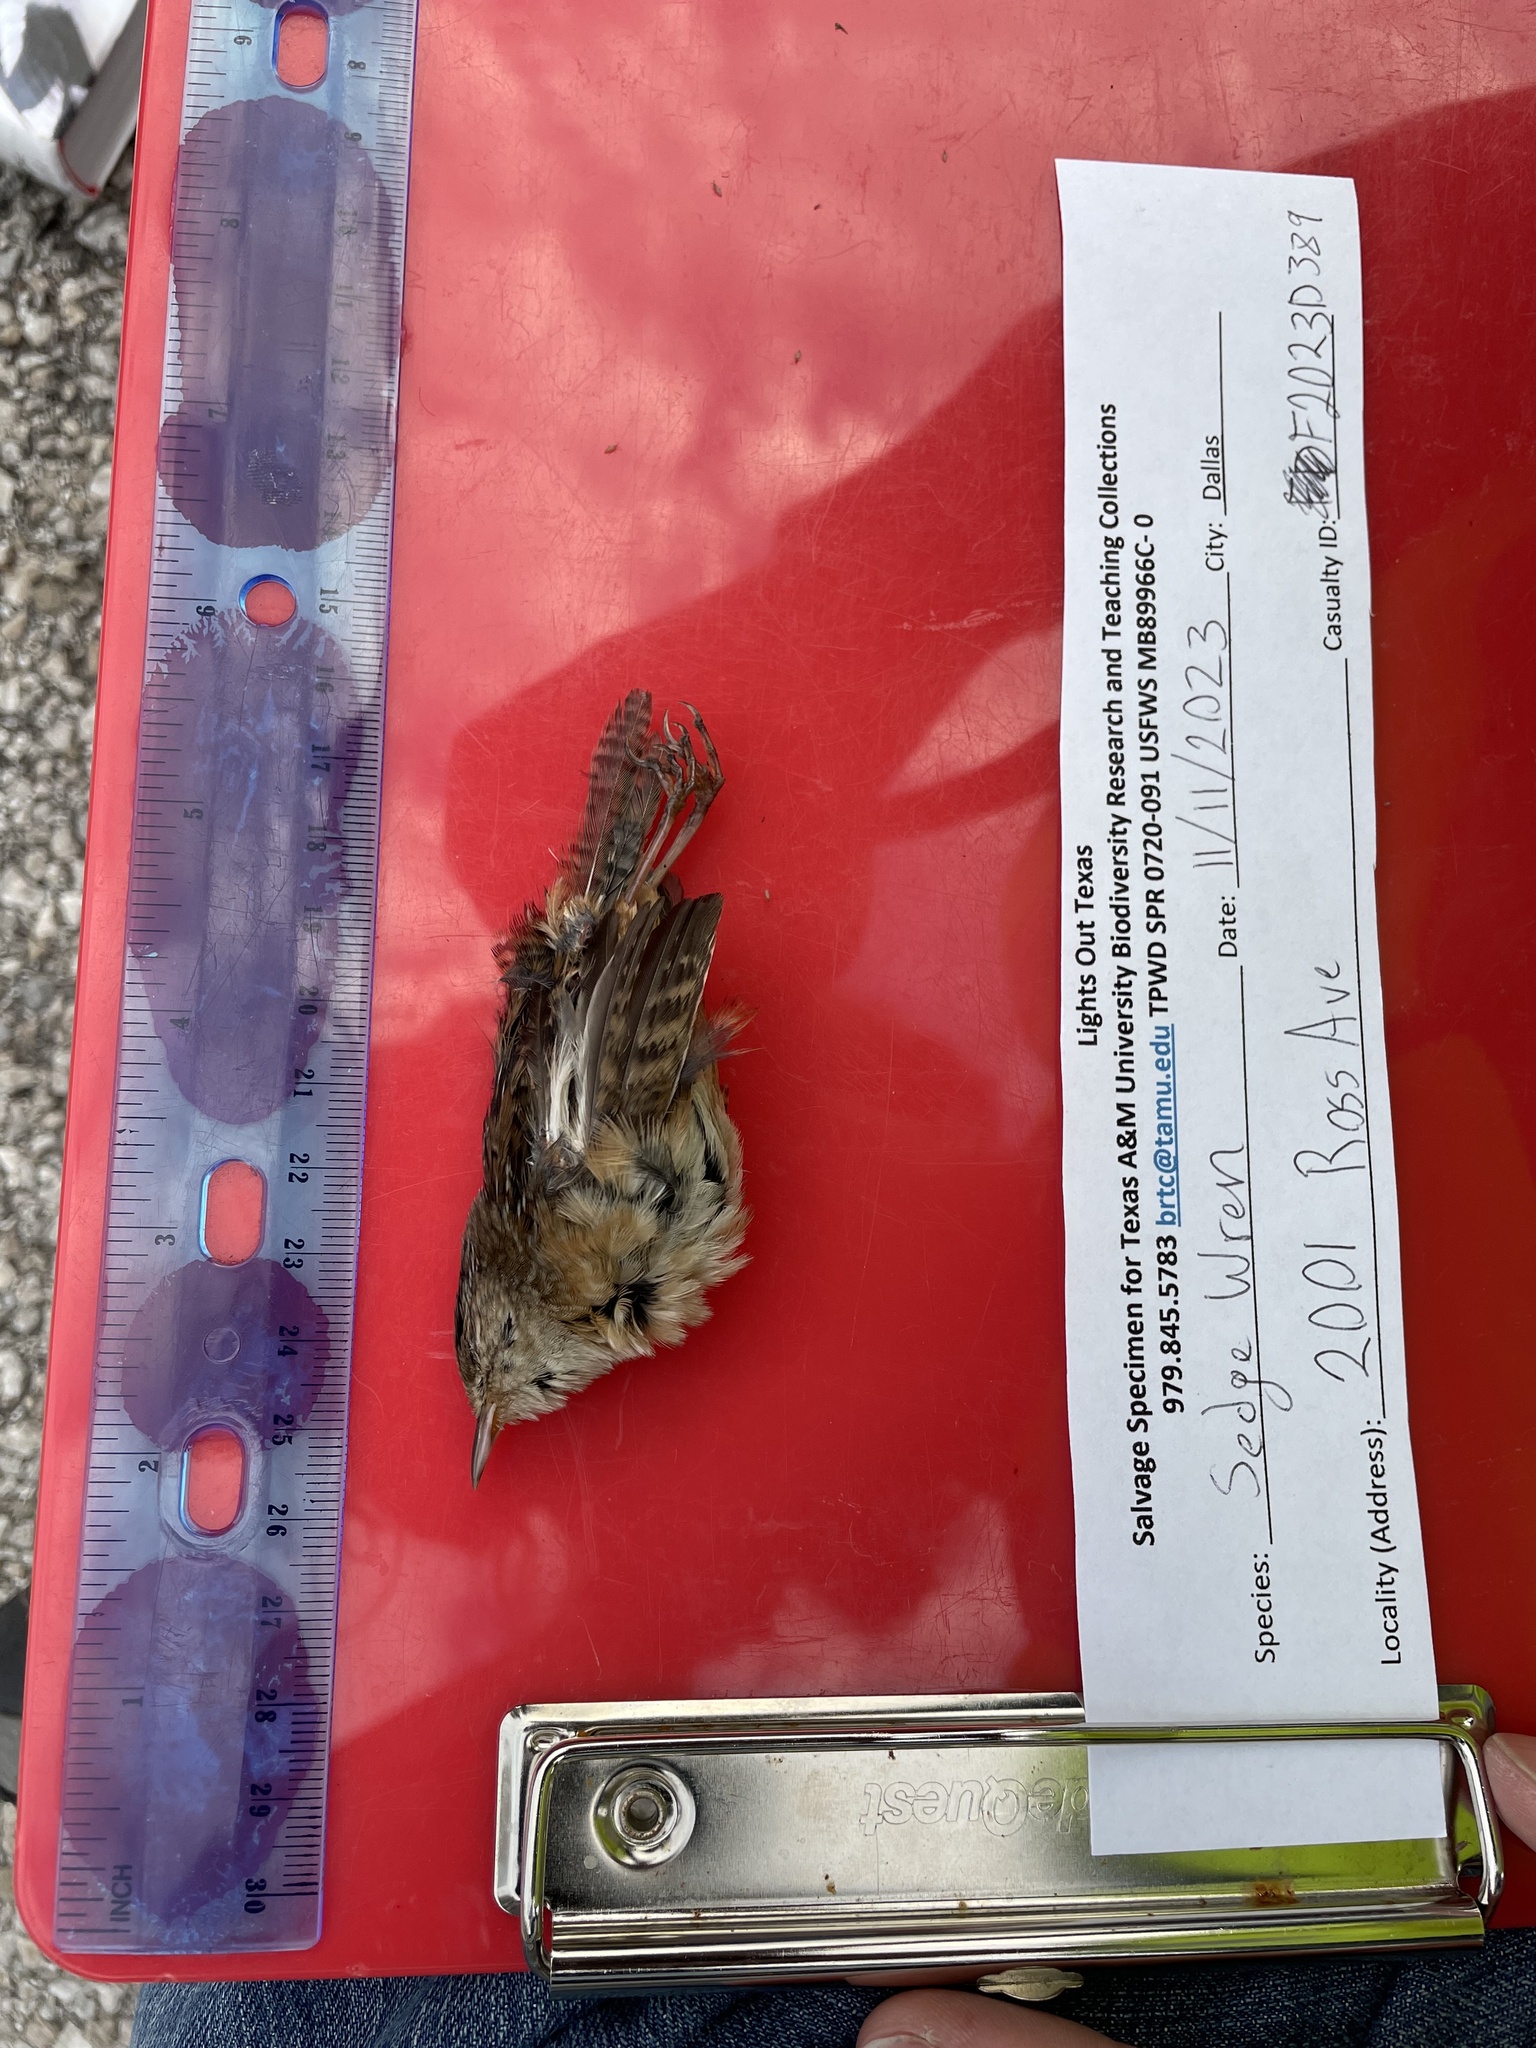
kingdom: Animalia
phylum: Chordata
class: Aves
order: Passeriformes
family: Troglodytidae
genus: Cistothorus
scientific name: Cistothorus platensis
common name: Sedge wren
